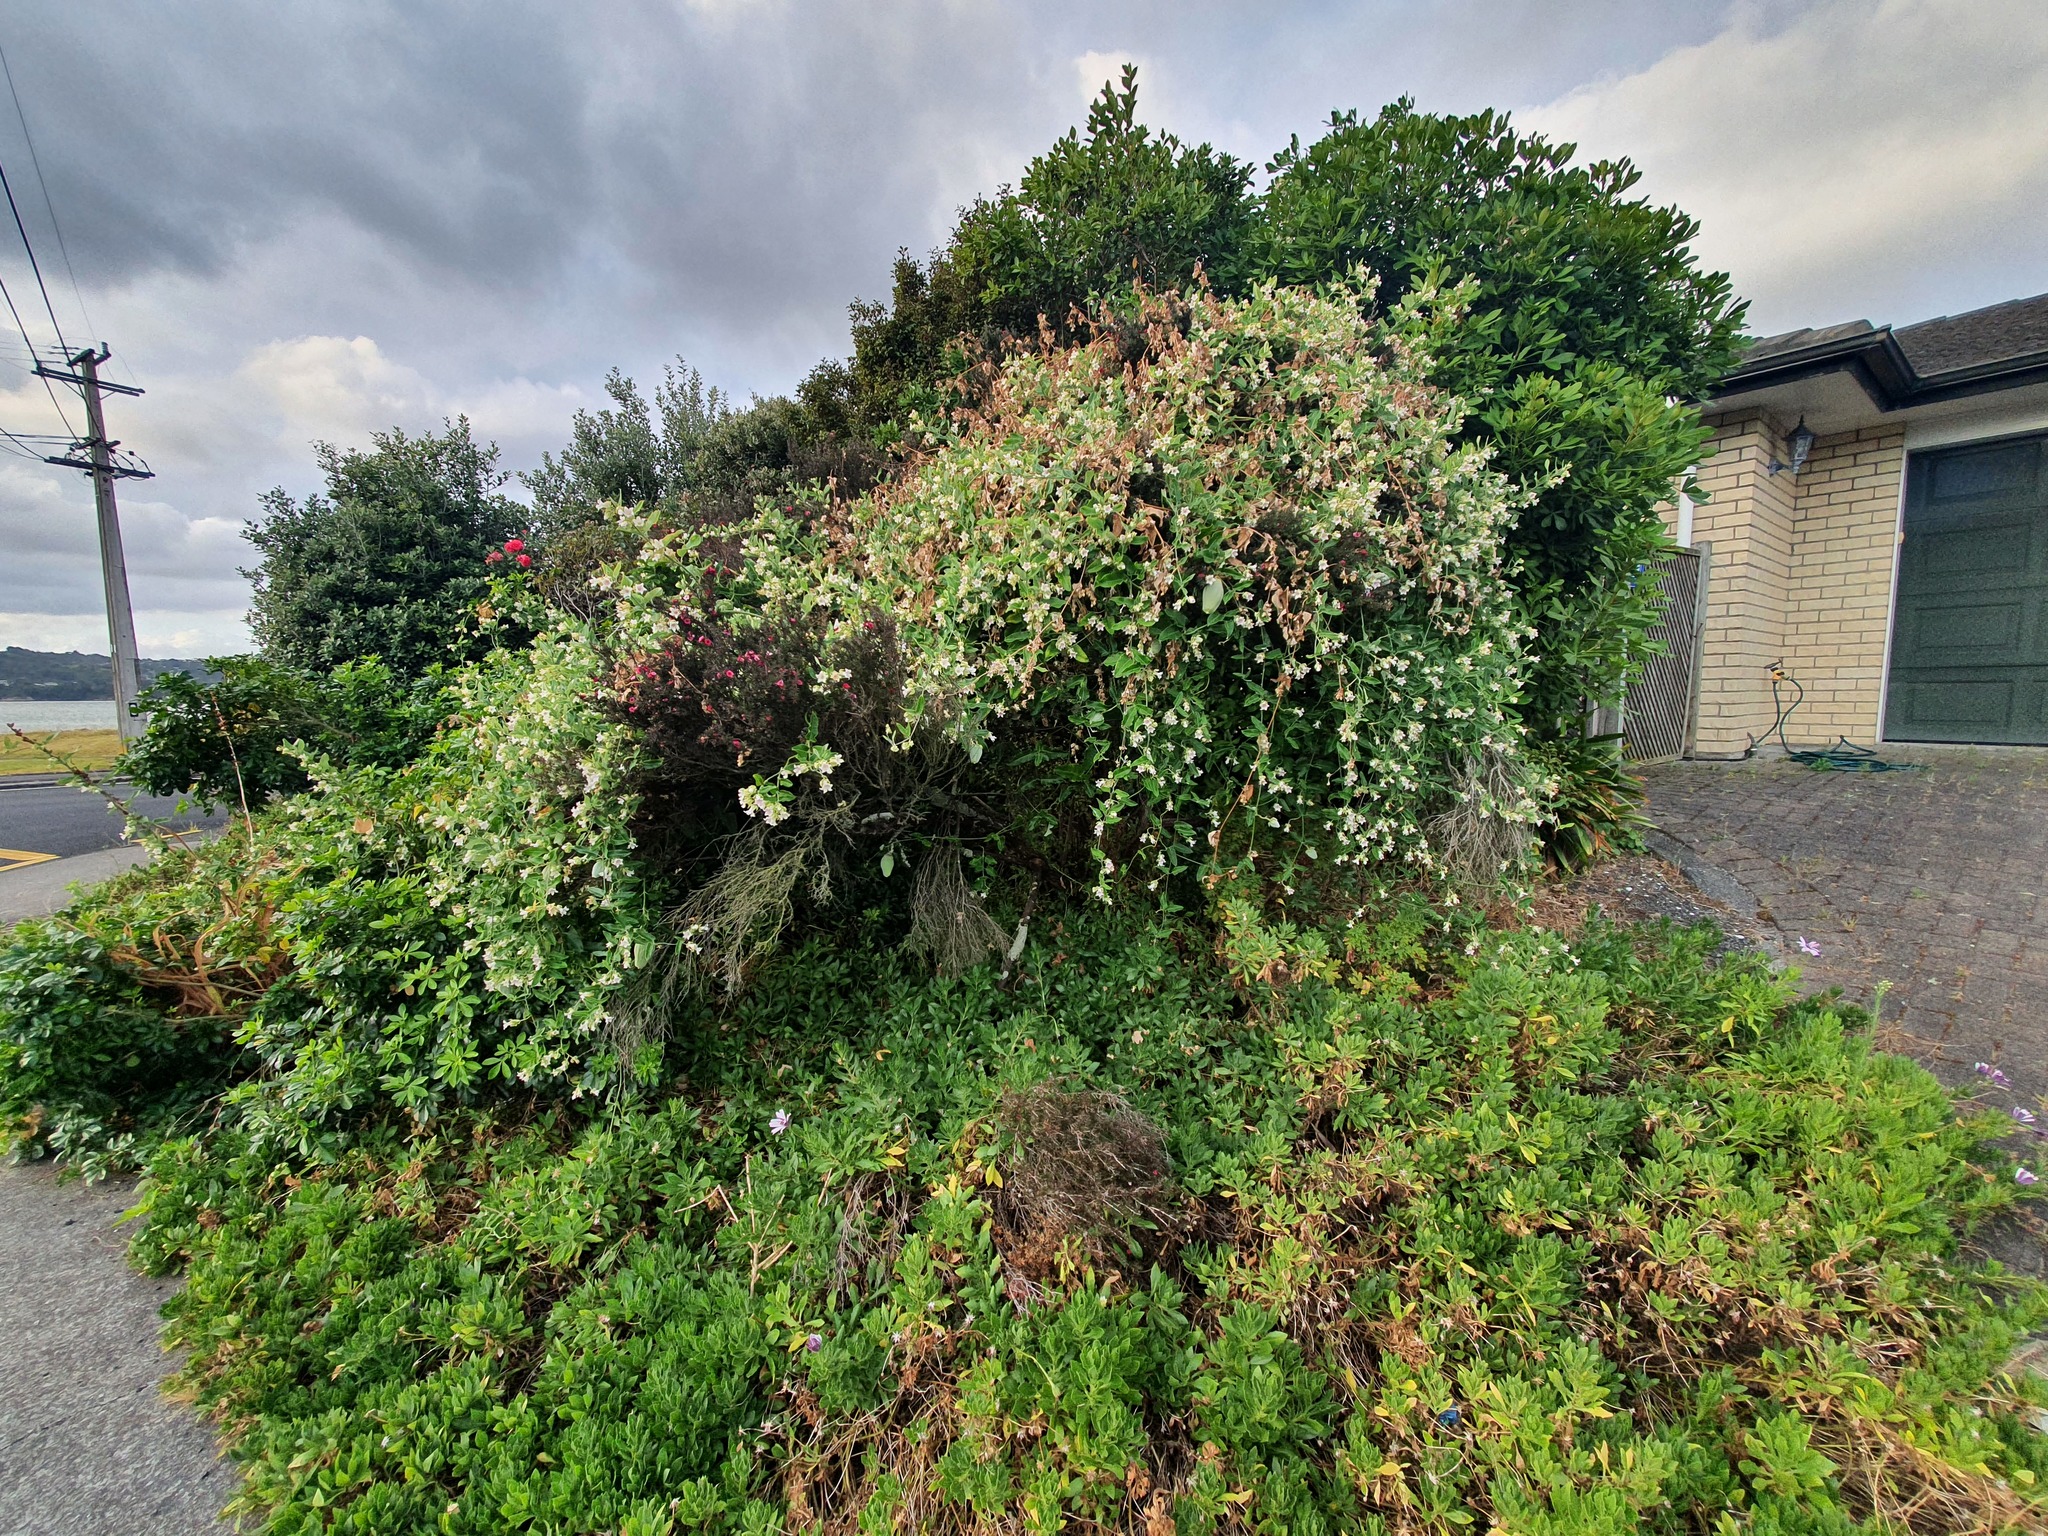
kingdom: Plantae
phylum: Tracheophyta
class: Magnoliopsida
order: Gentianales
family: Apocynaceae
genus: Araujia
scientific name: Araujia sericifera
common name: White bladderflower
